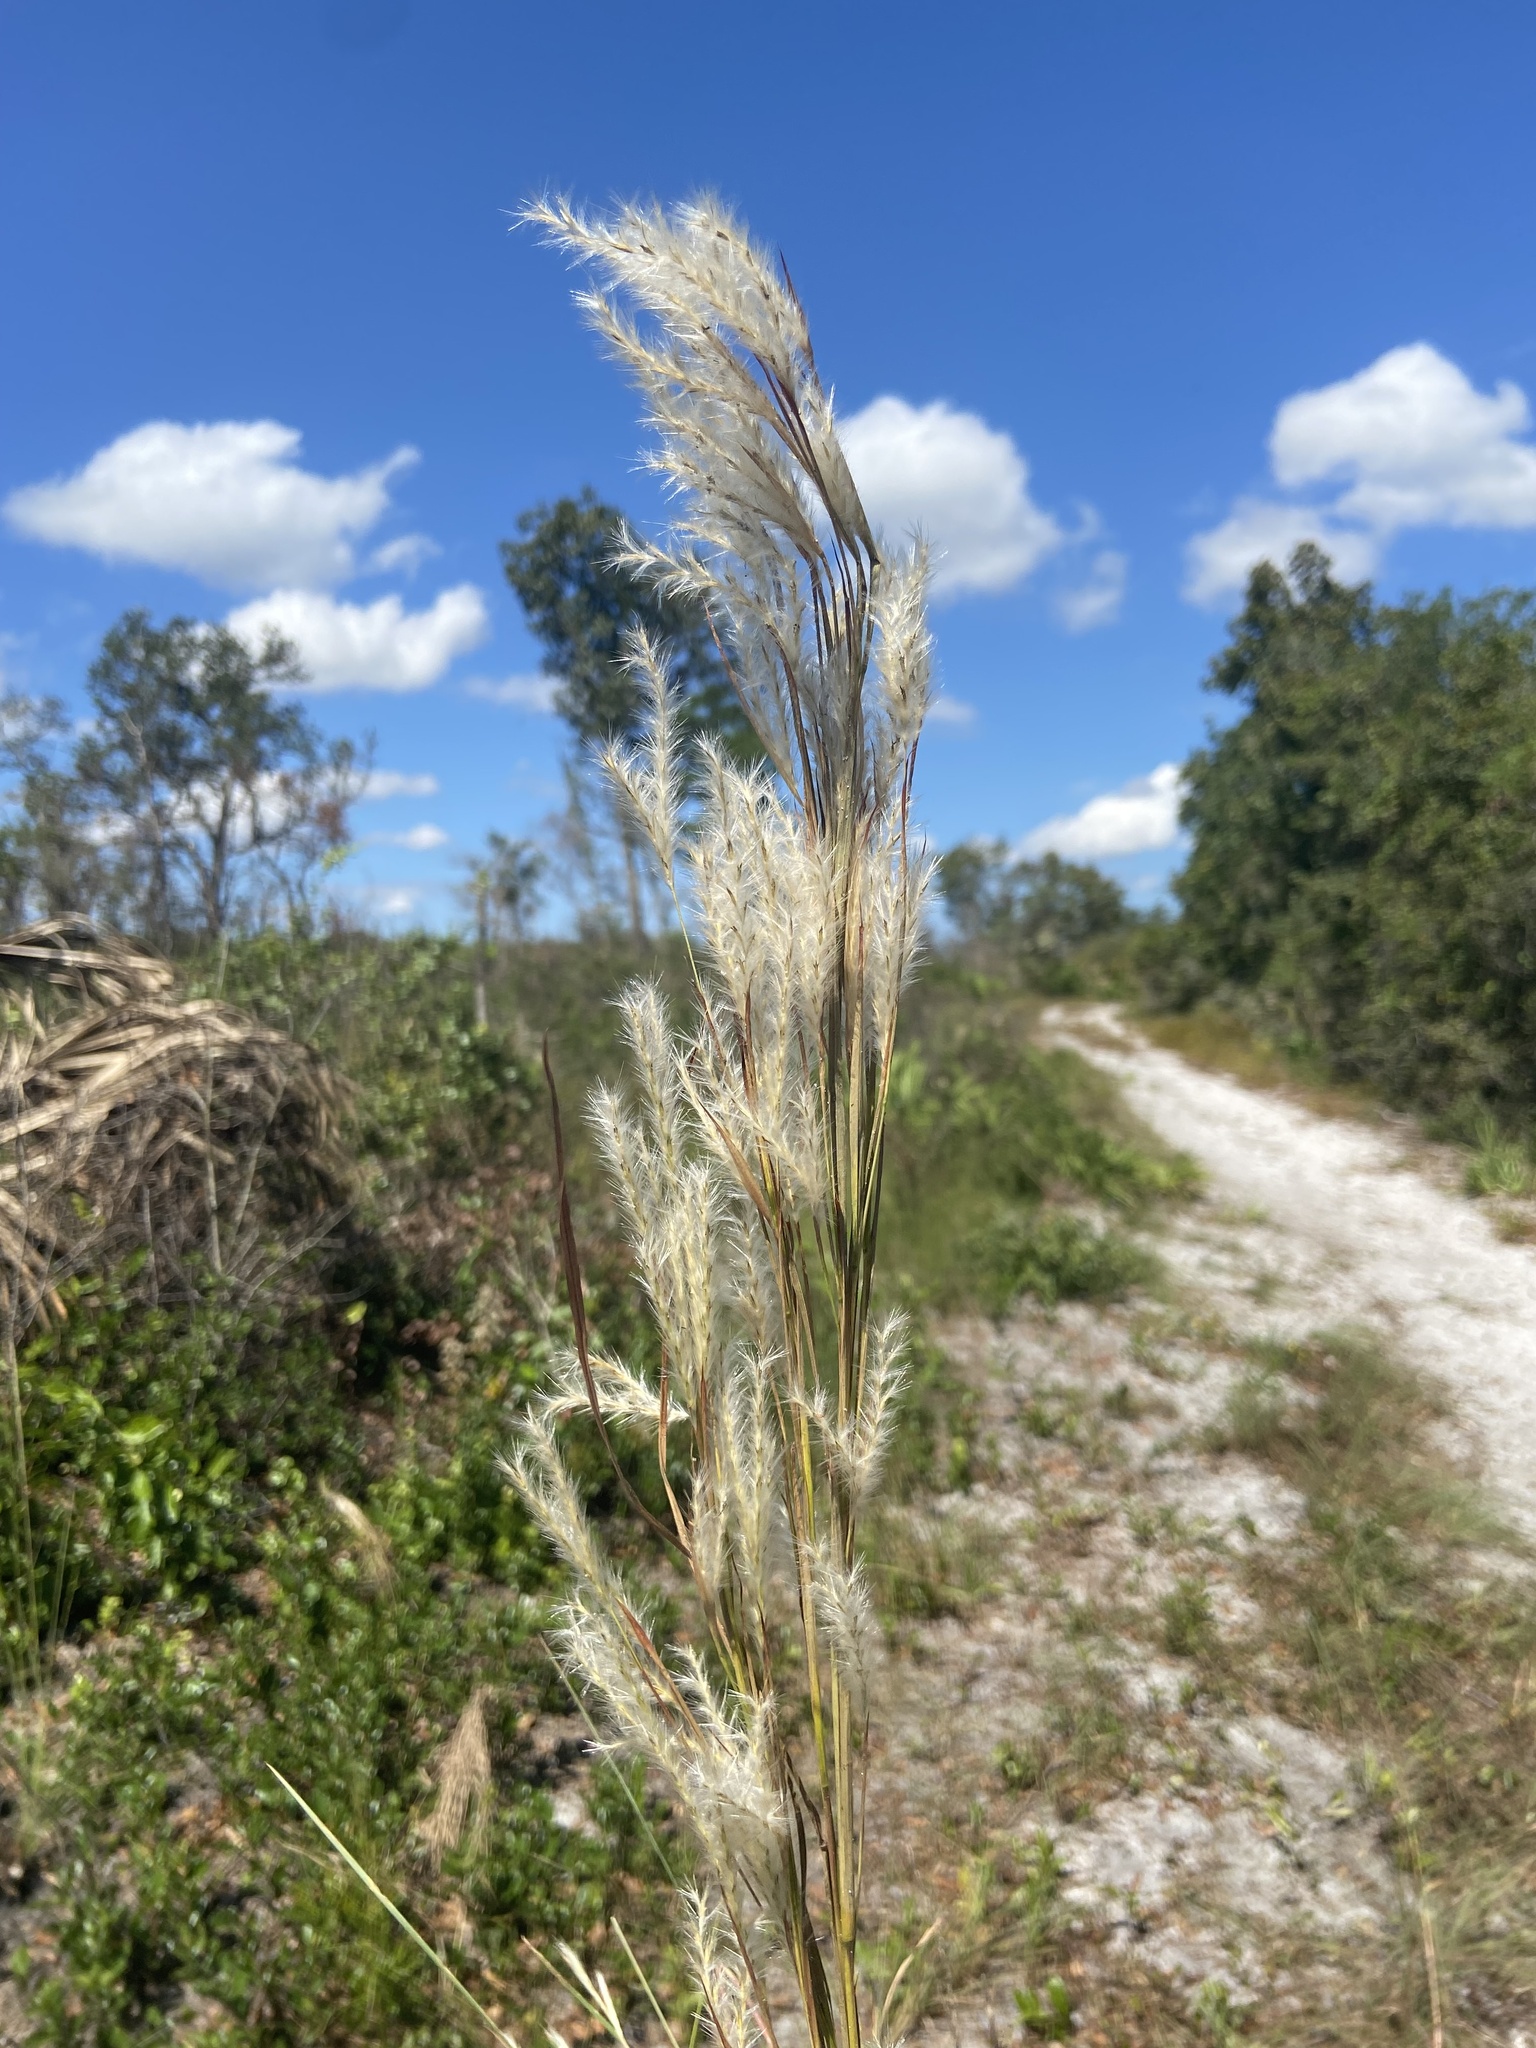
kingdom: Plantae
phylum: Tracheophyta
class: Liliopsida
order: Poales
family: Poaceae
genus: Andropogon
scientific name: Andropogon floridanus
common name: Florida bluestem
